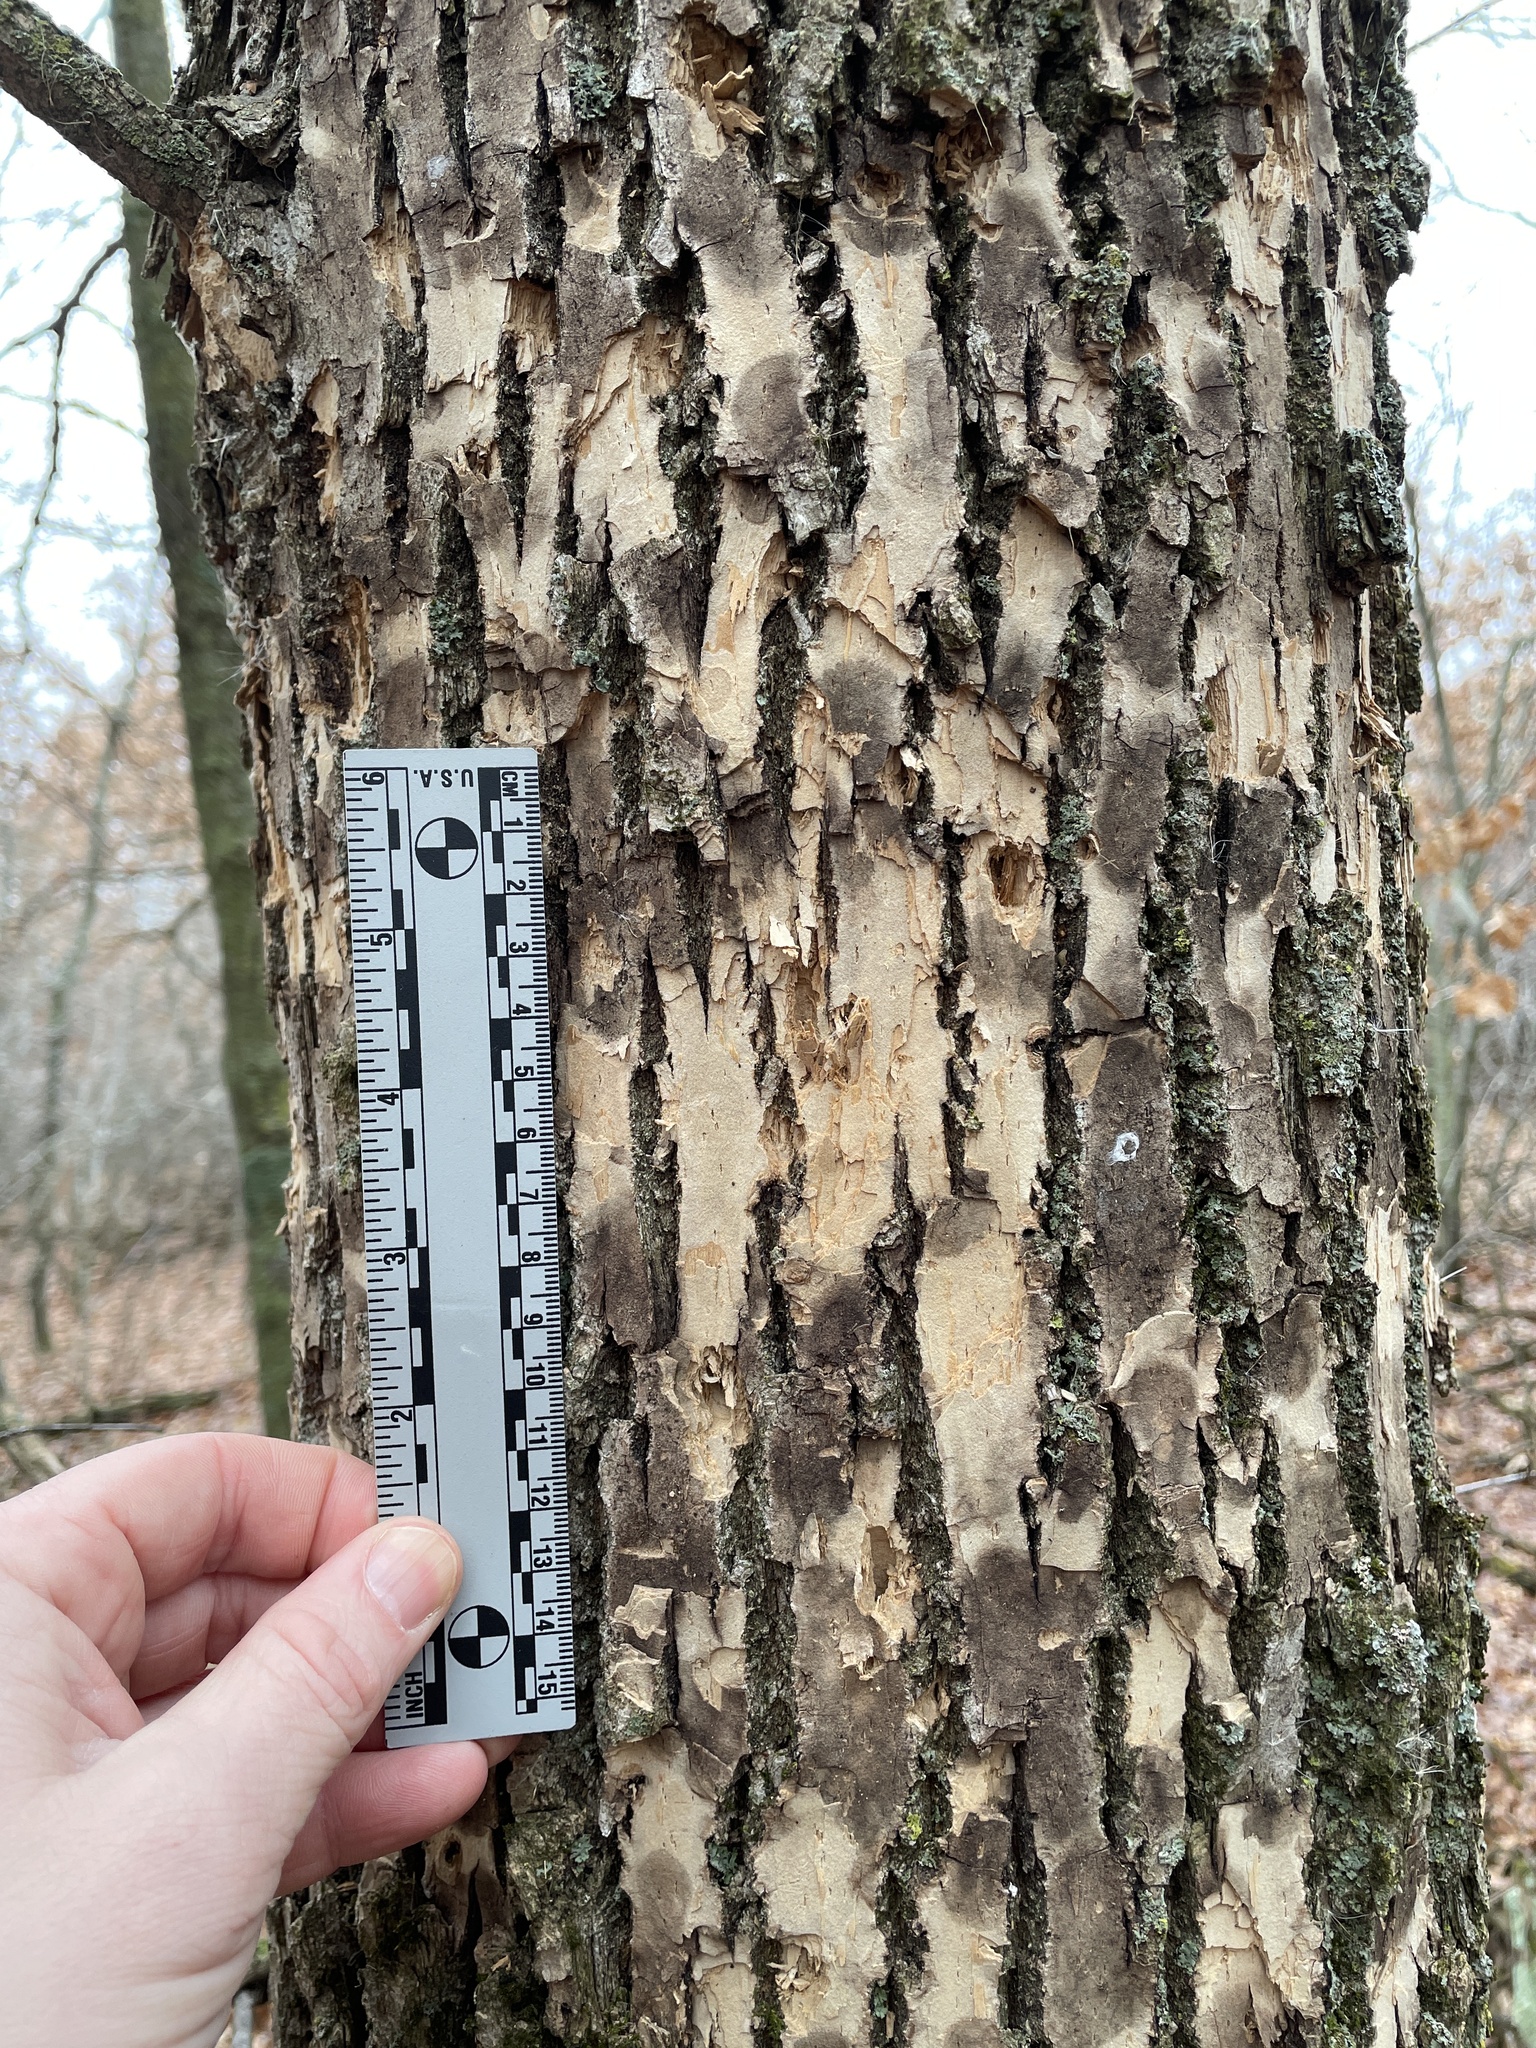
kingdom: Animalia
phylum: Arthropoda
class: Insecta
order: Coleoptera
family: Buprestidae
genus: Agrilus
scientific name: Agrilus planipennis
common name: Emerald ash borer
